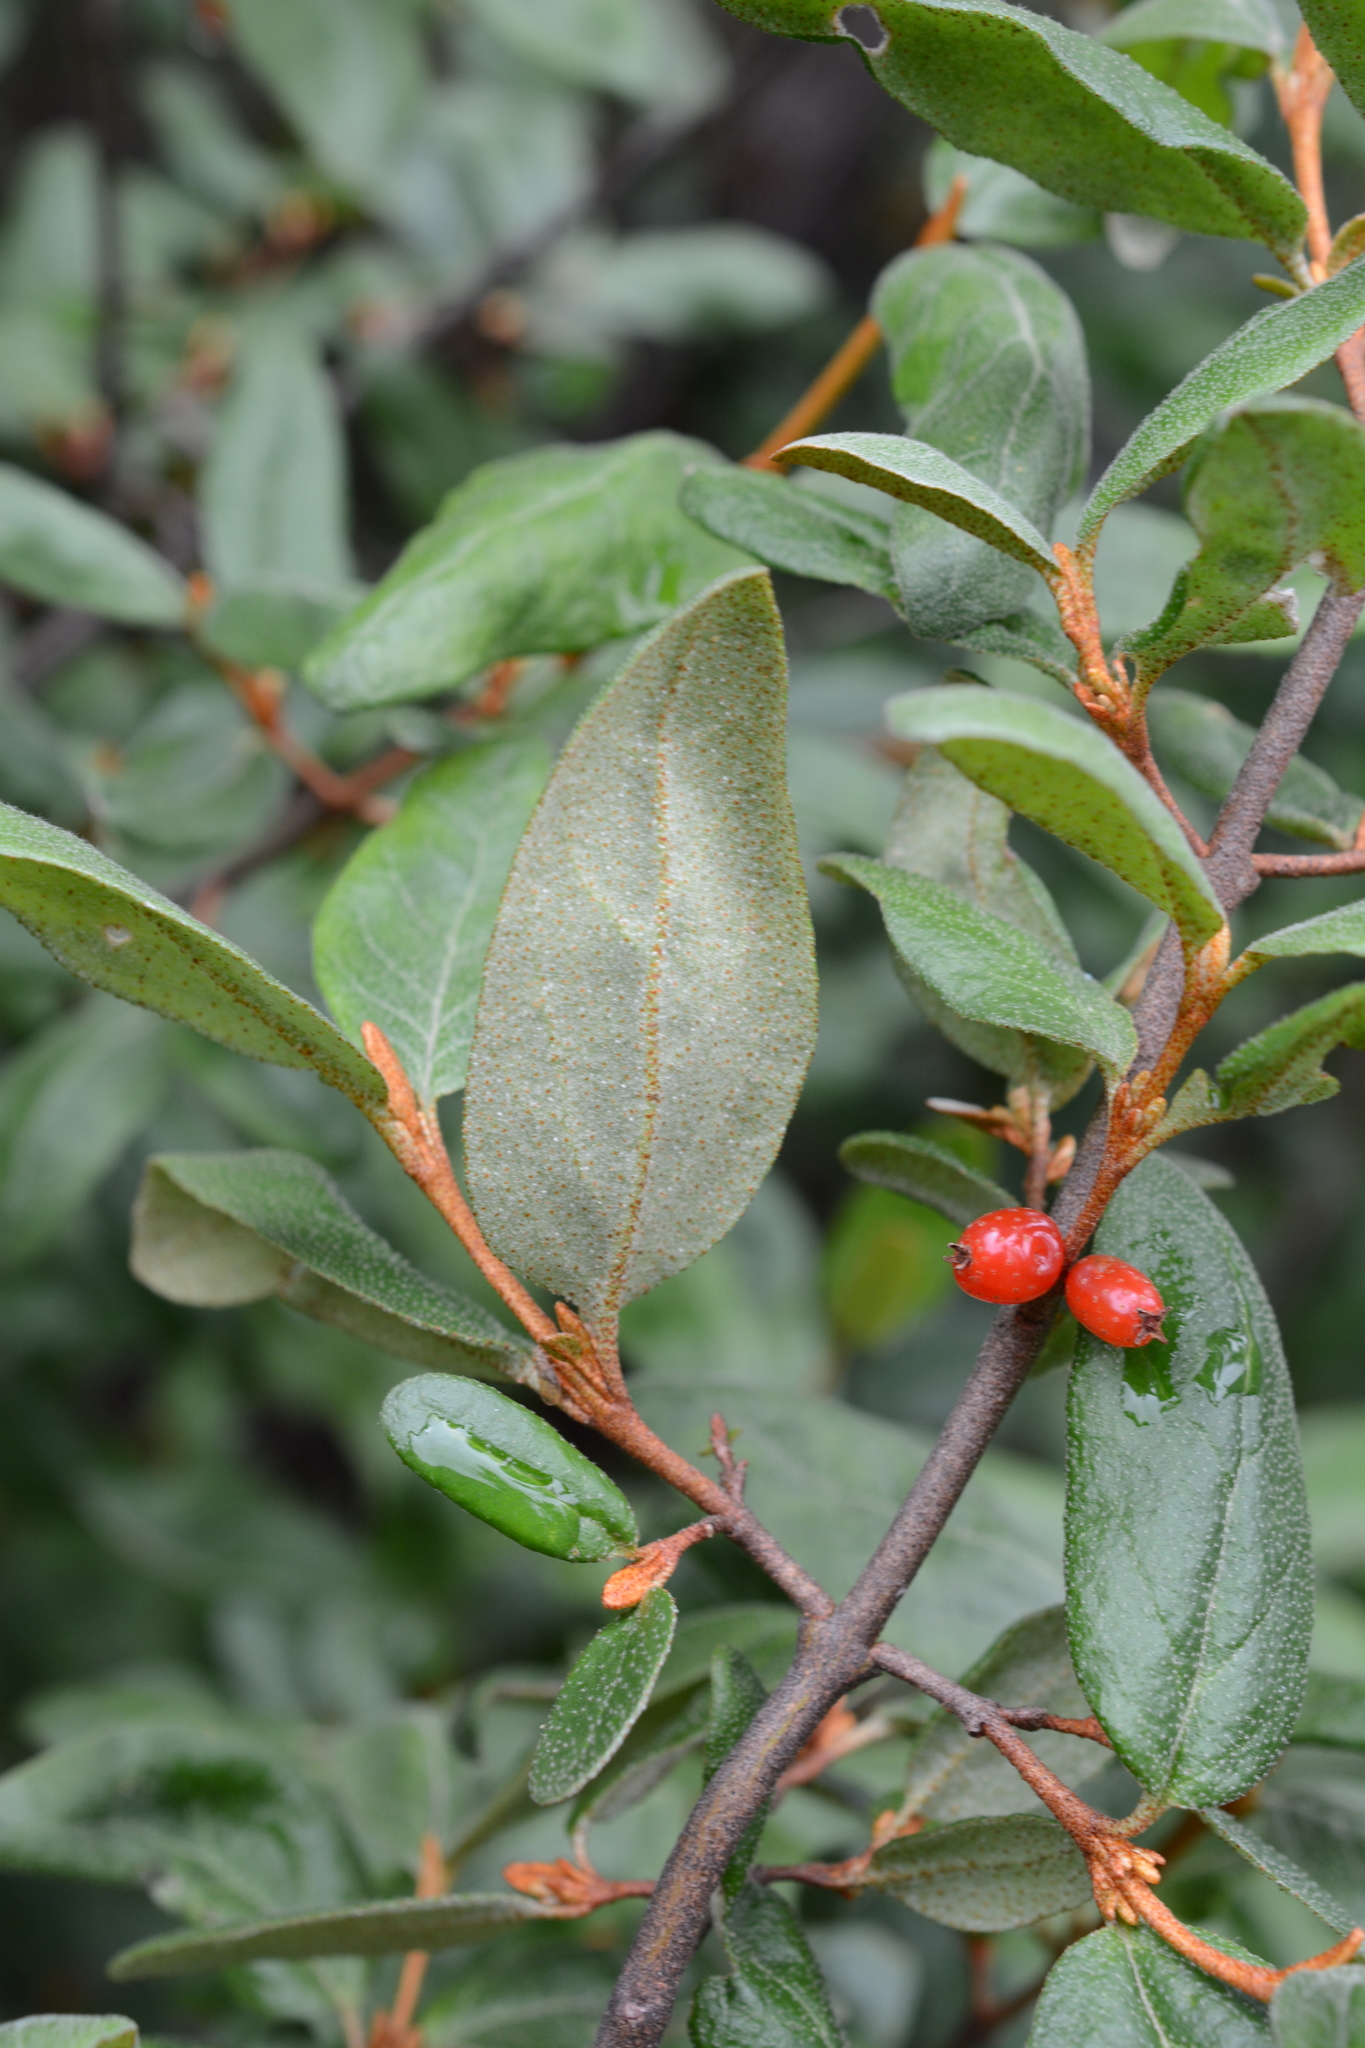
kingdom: Plantae
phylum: Tracheophyta
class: Magnoliopsida
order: Rosales
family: Elaeagnaceae
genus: Shepherdia
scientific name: Shepherdia canadensis
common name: Soapberry
